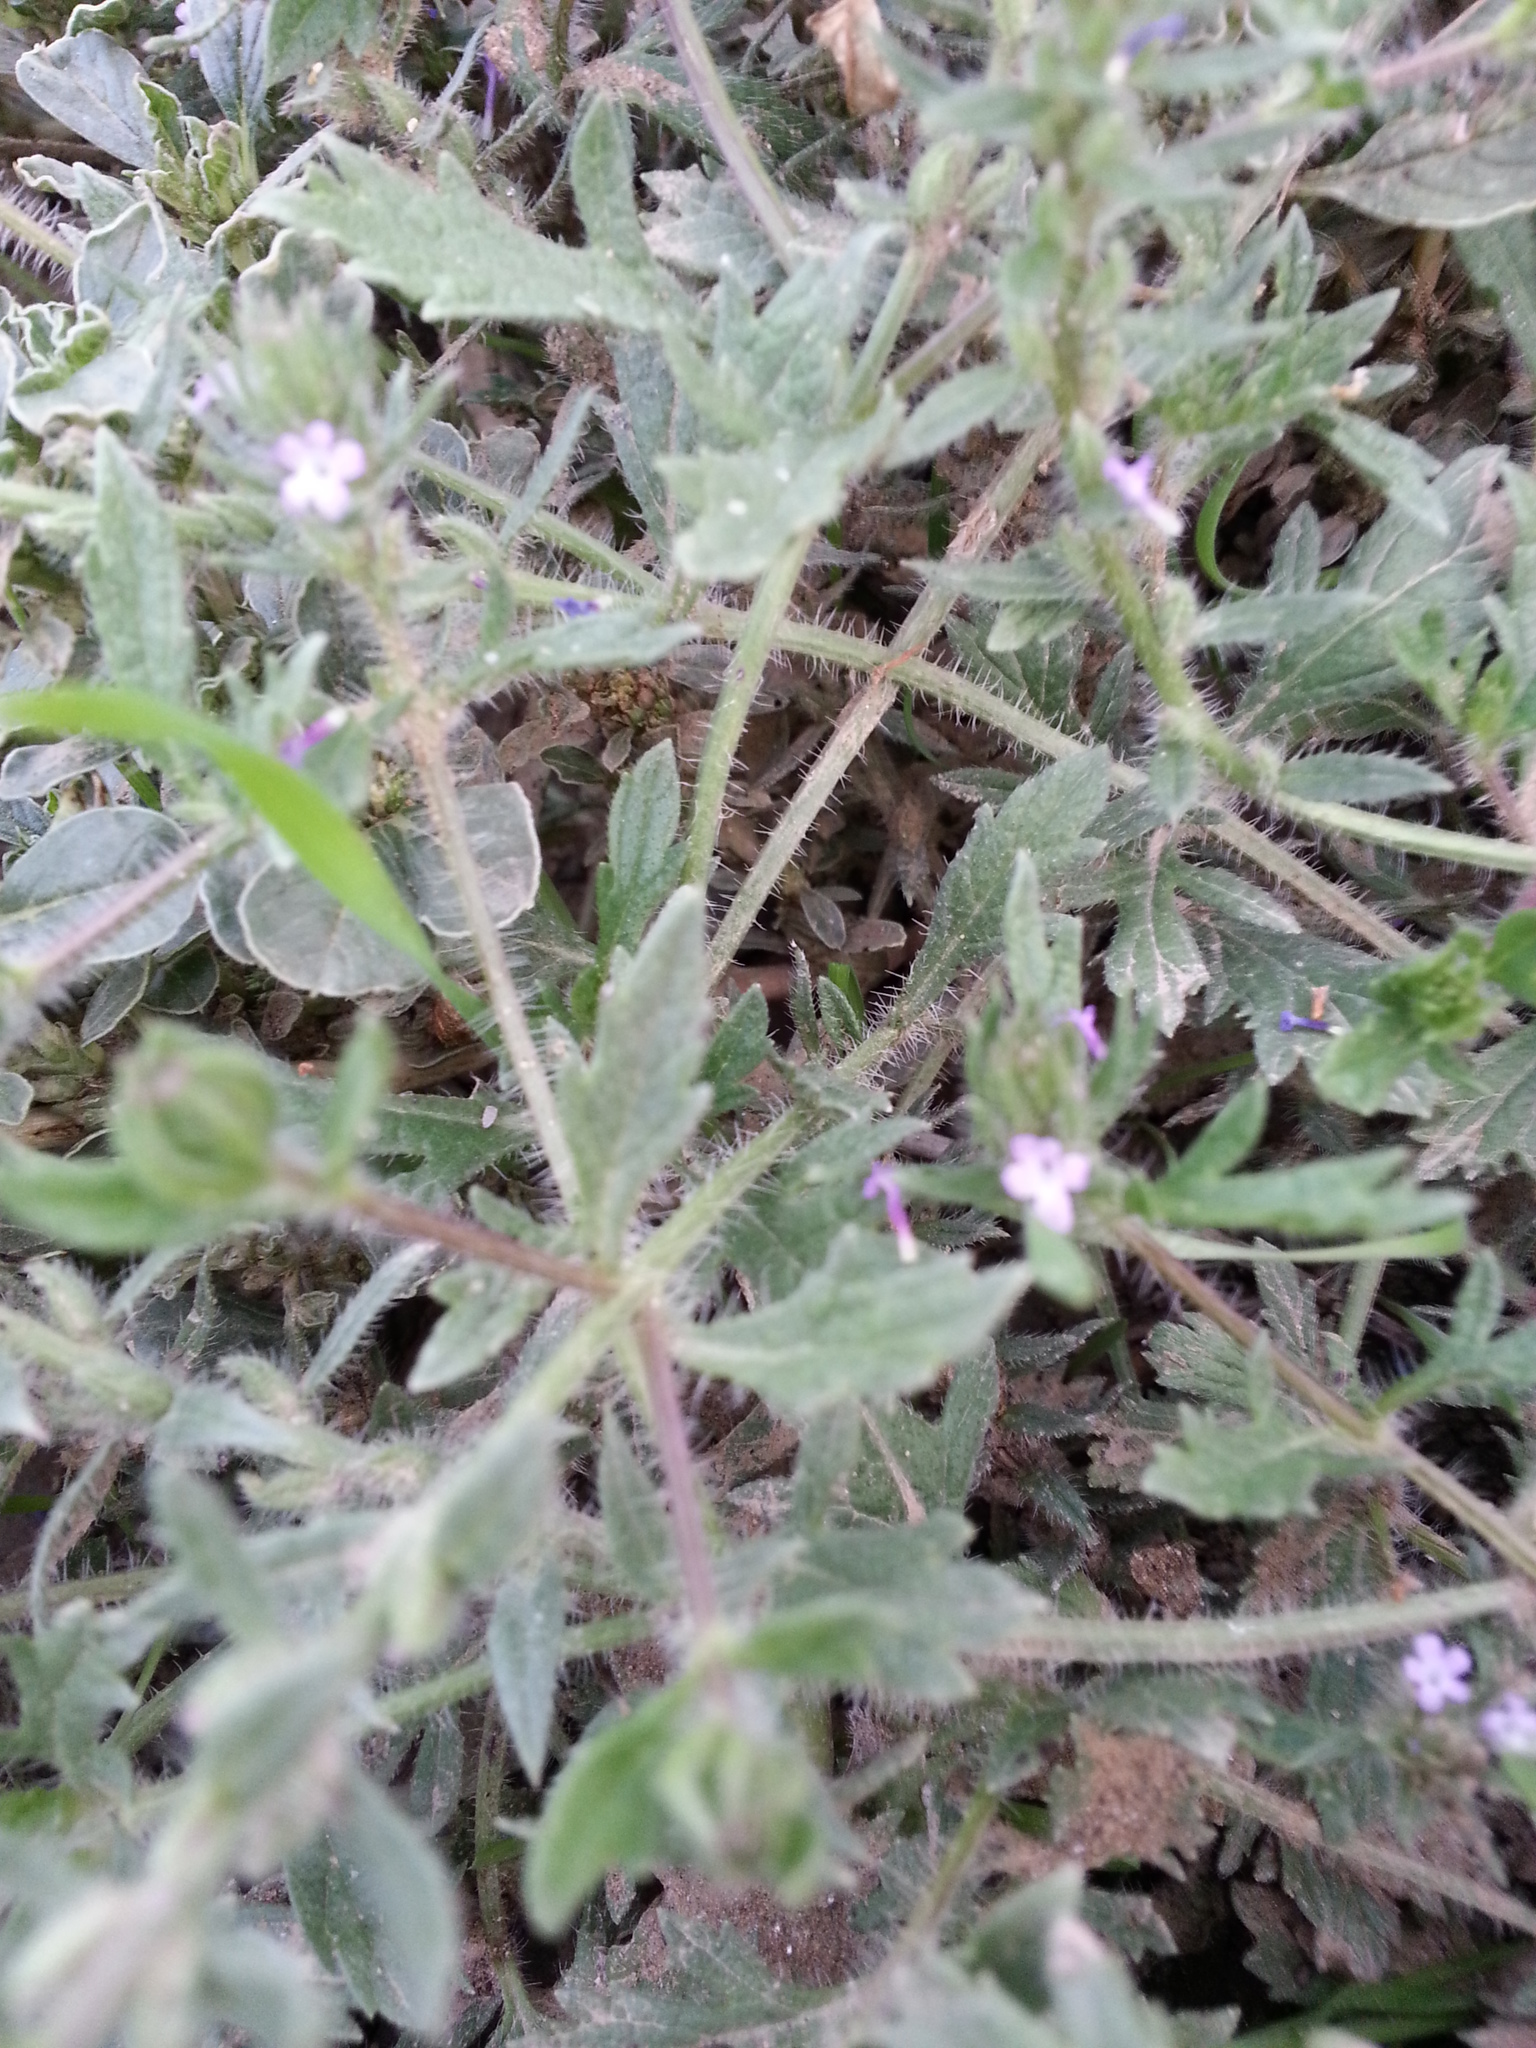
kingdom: Plantae
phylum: Tracheophyta
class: Magnoliopsida
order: Lamiales
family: Verbenaceae
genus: Verbena
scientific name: Verbena bracteata
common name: Bracted vervain
